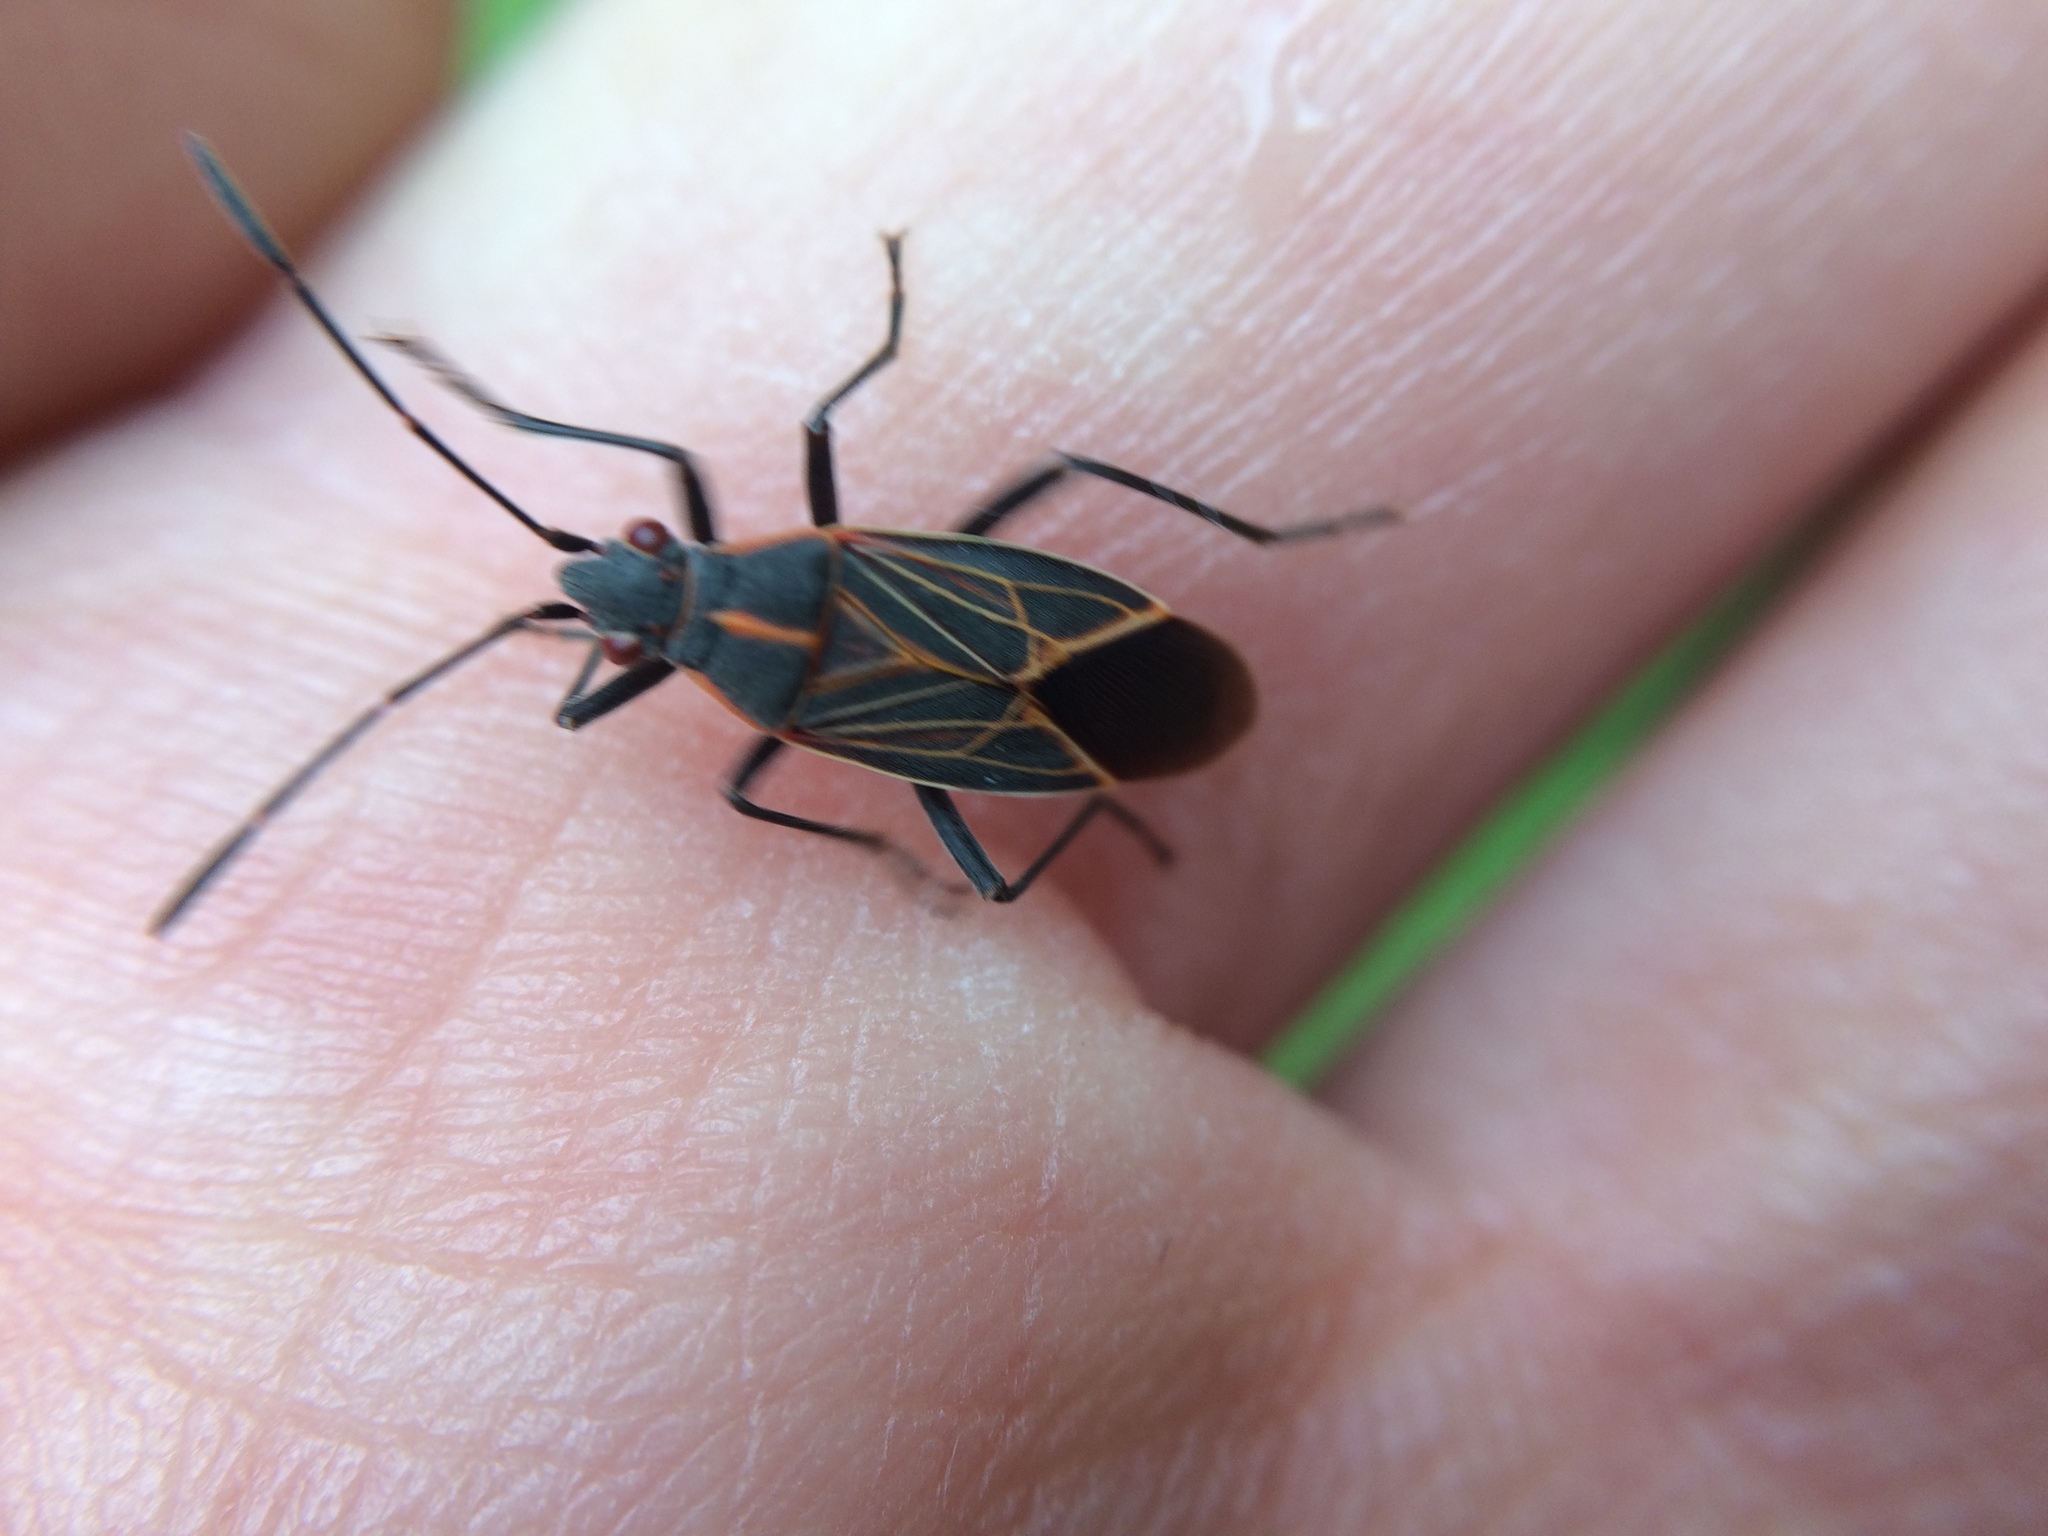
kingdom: Animalia
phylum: Arthropoda
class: Insecta
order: Hemiptera
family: Rhopalidae
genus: Boisea
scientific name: Boisea rubrolineata
